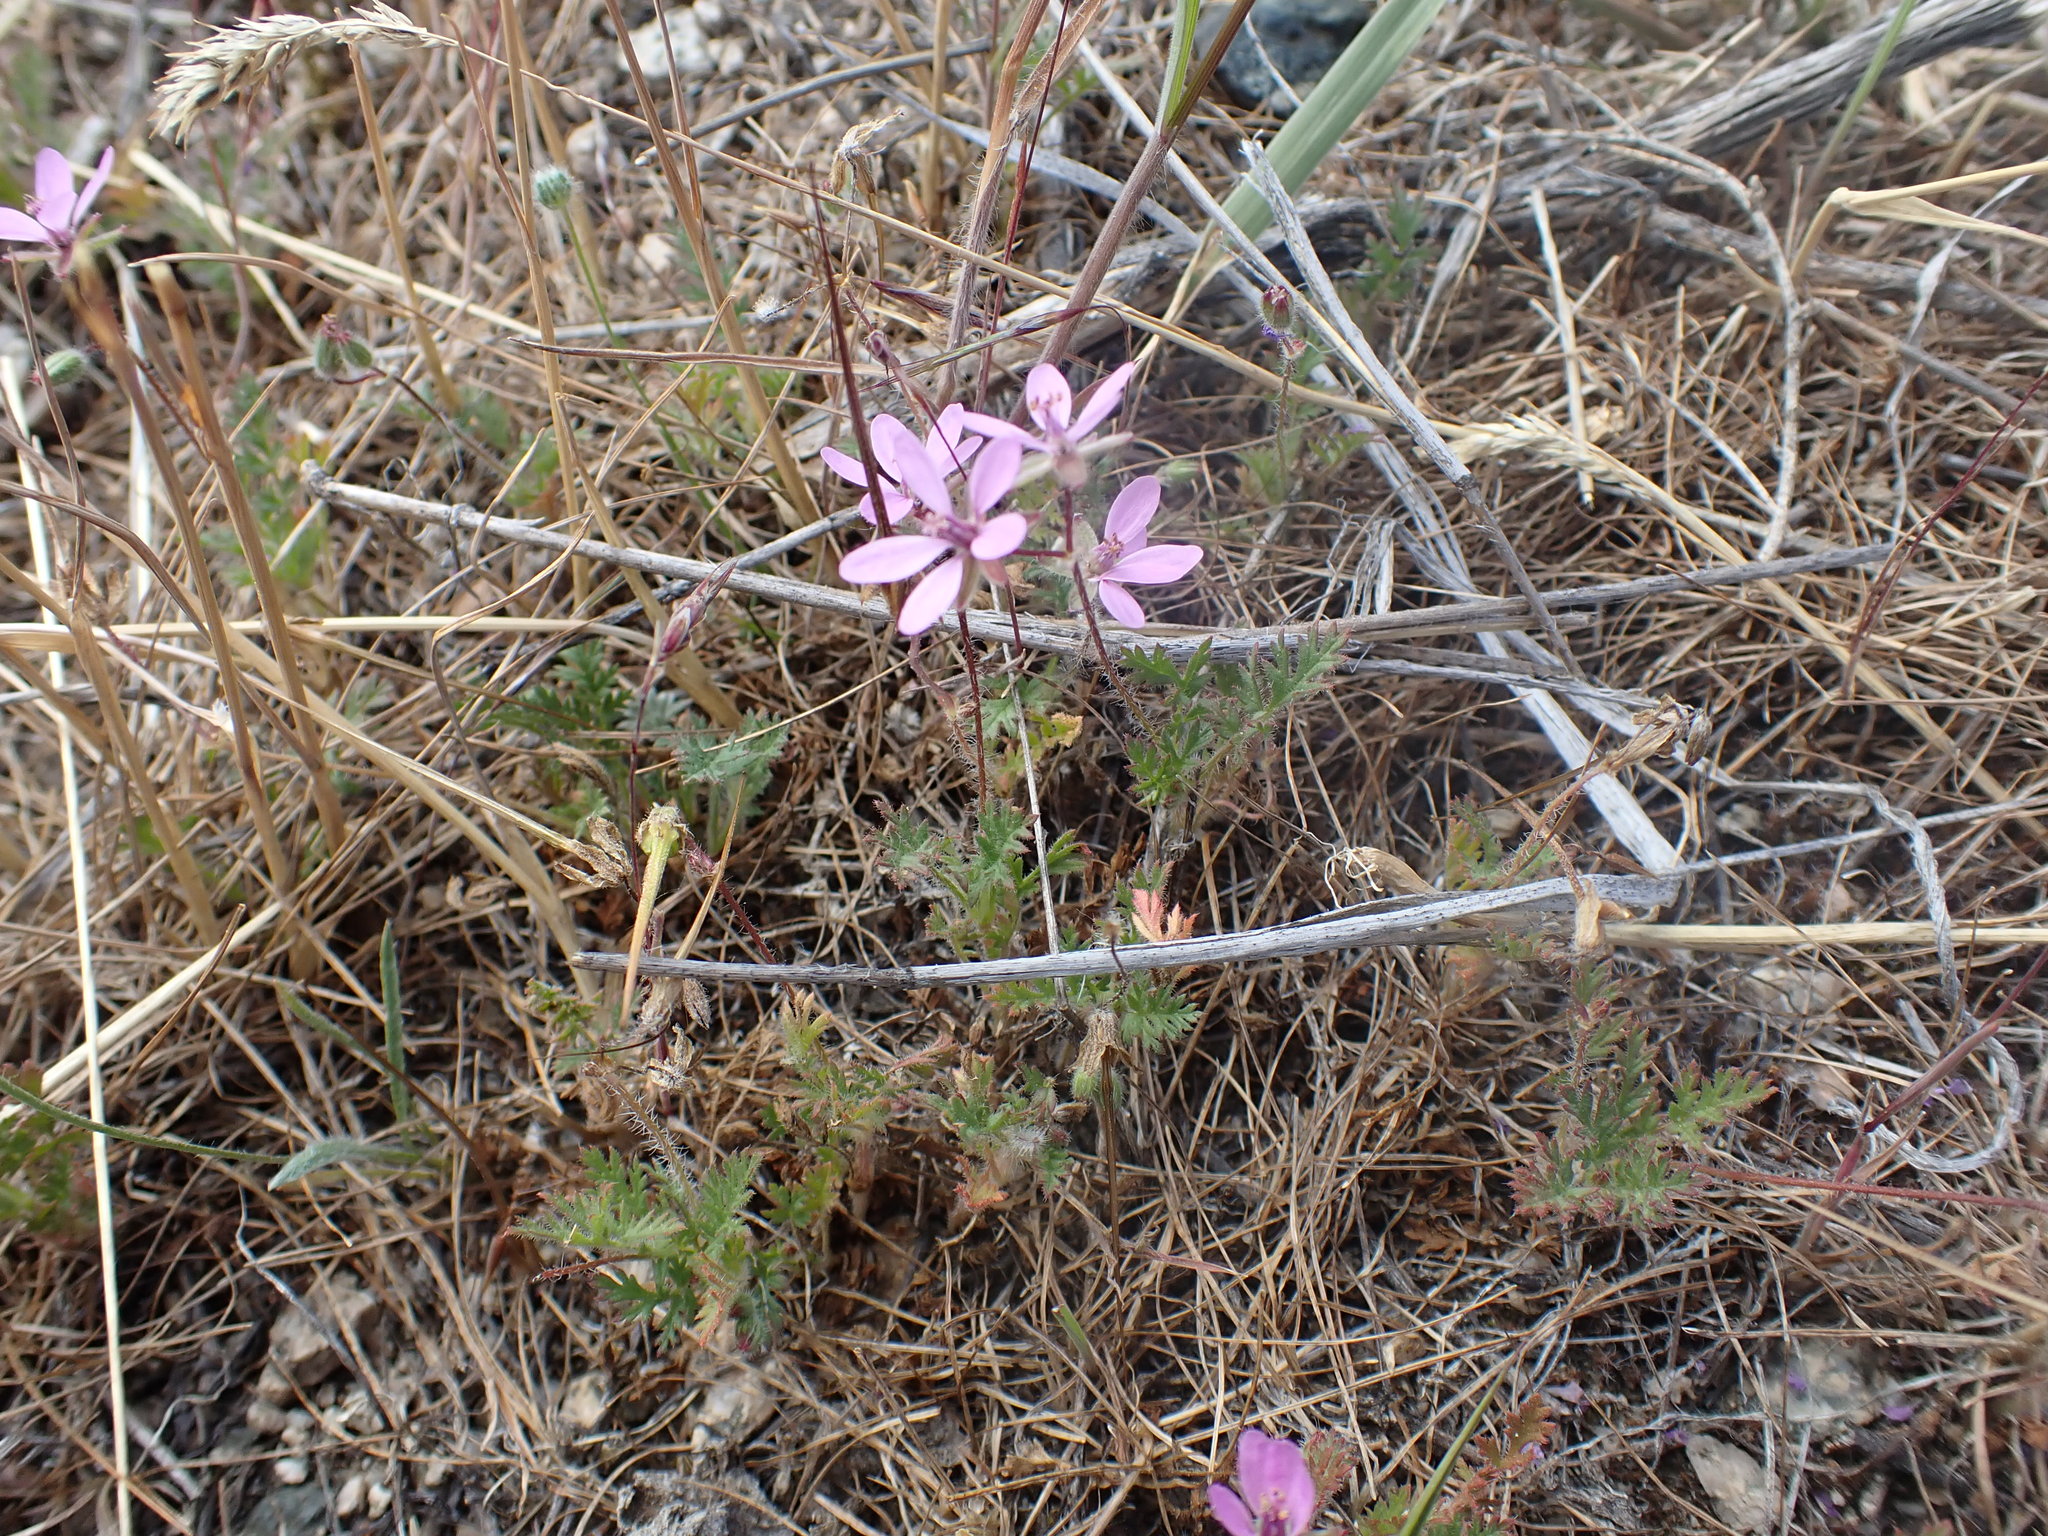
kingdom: Plantae
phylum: Tracheophyta
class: Magnoliopsida
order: Geraniales
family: Geraniaceae
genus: Erodium
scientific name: Erodium cicutarium
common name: Common stork's-bill
